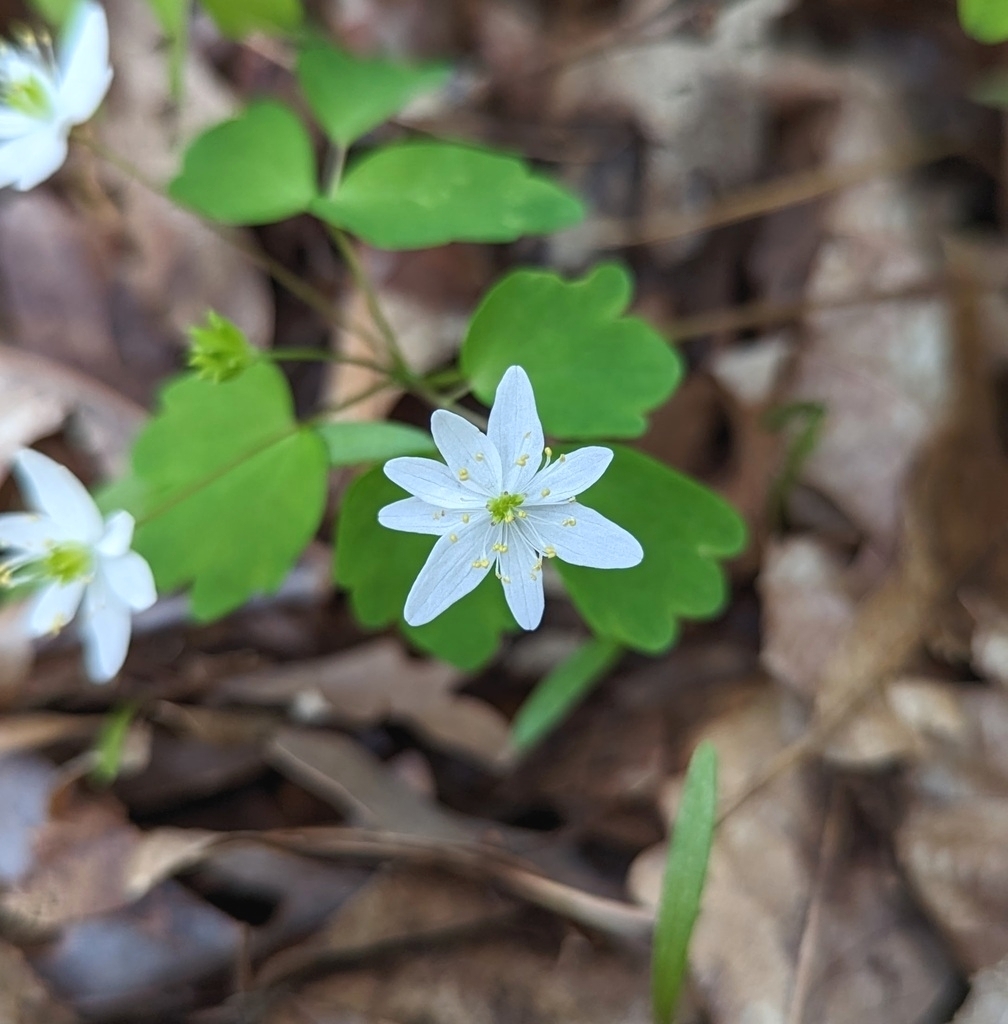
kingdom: Plantae
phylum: Tracheophyta
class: Magnoliopsida
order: Ranunculales
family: Ranunculaceae
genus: Thalictrum
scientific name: Thalictrum thalictroides
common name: Rue-anemone
